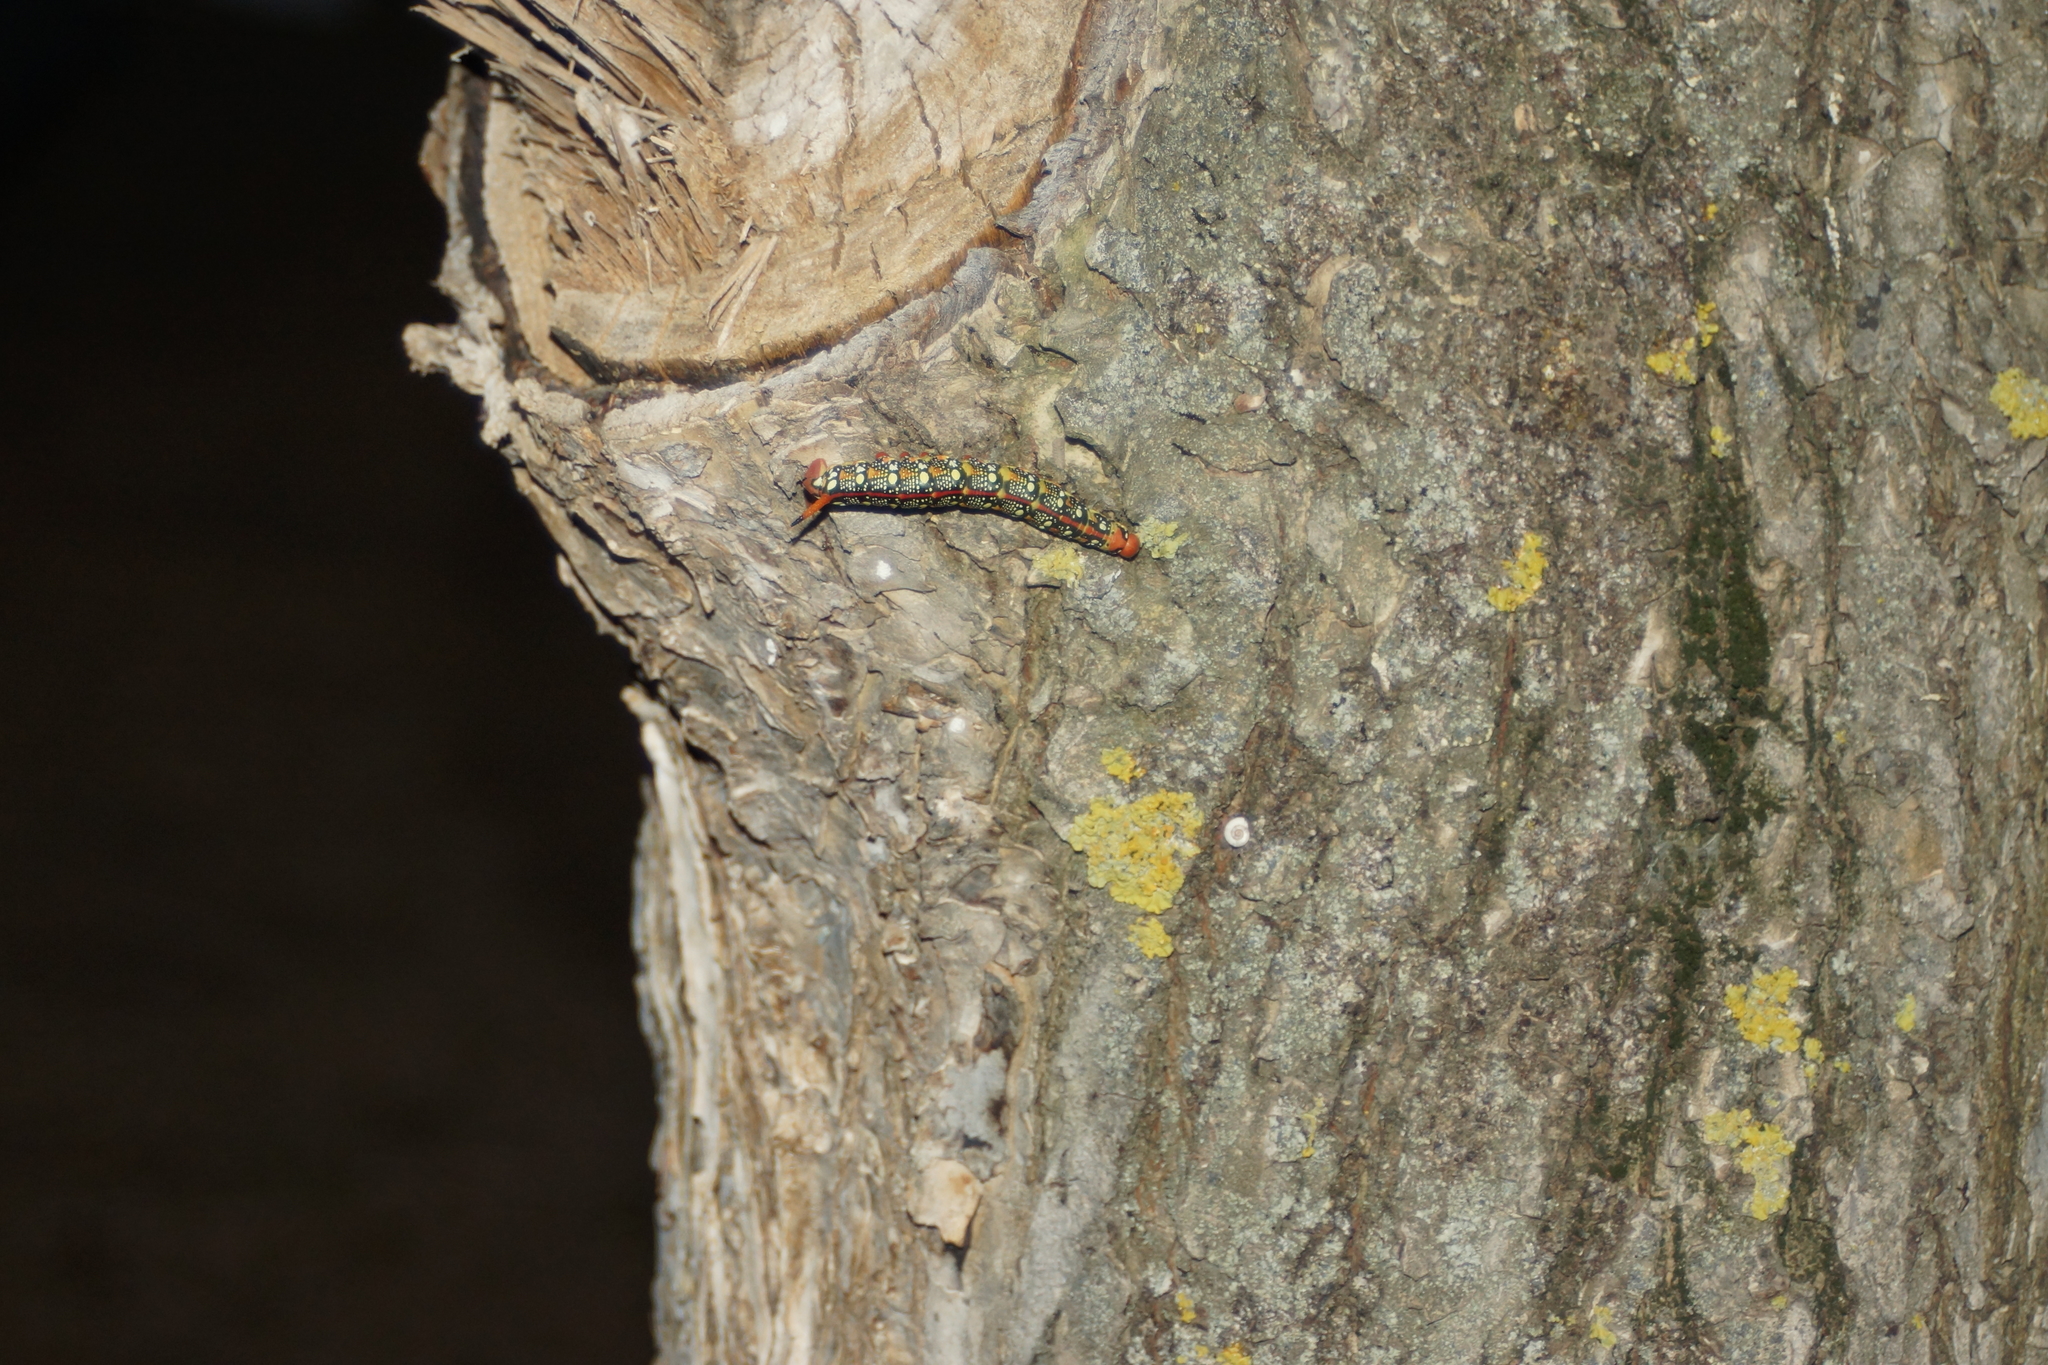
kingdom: Animalia
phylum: Arthropoda
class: Insecta
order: Lepidoptera
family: Sphingidae
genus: Hyles
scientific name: Hyles euphorbiae
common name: Spurge hawk-moth
